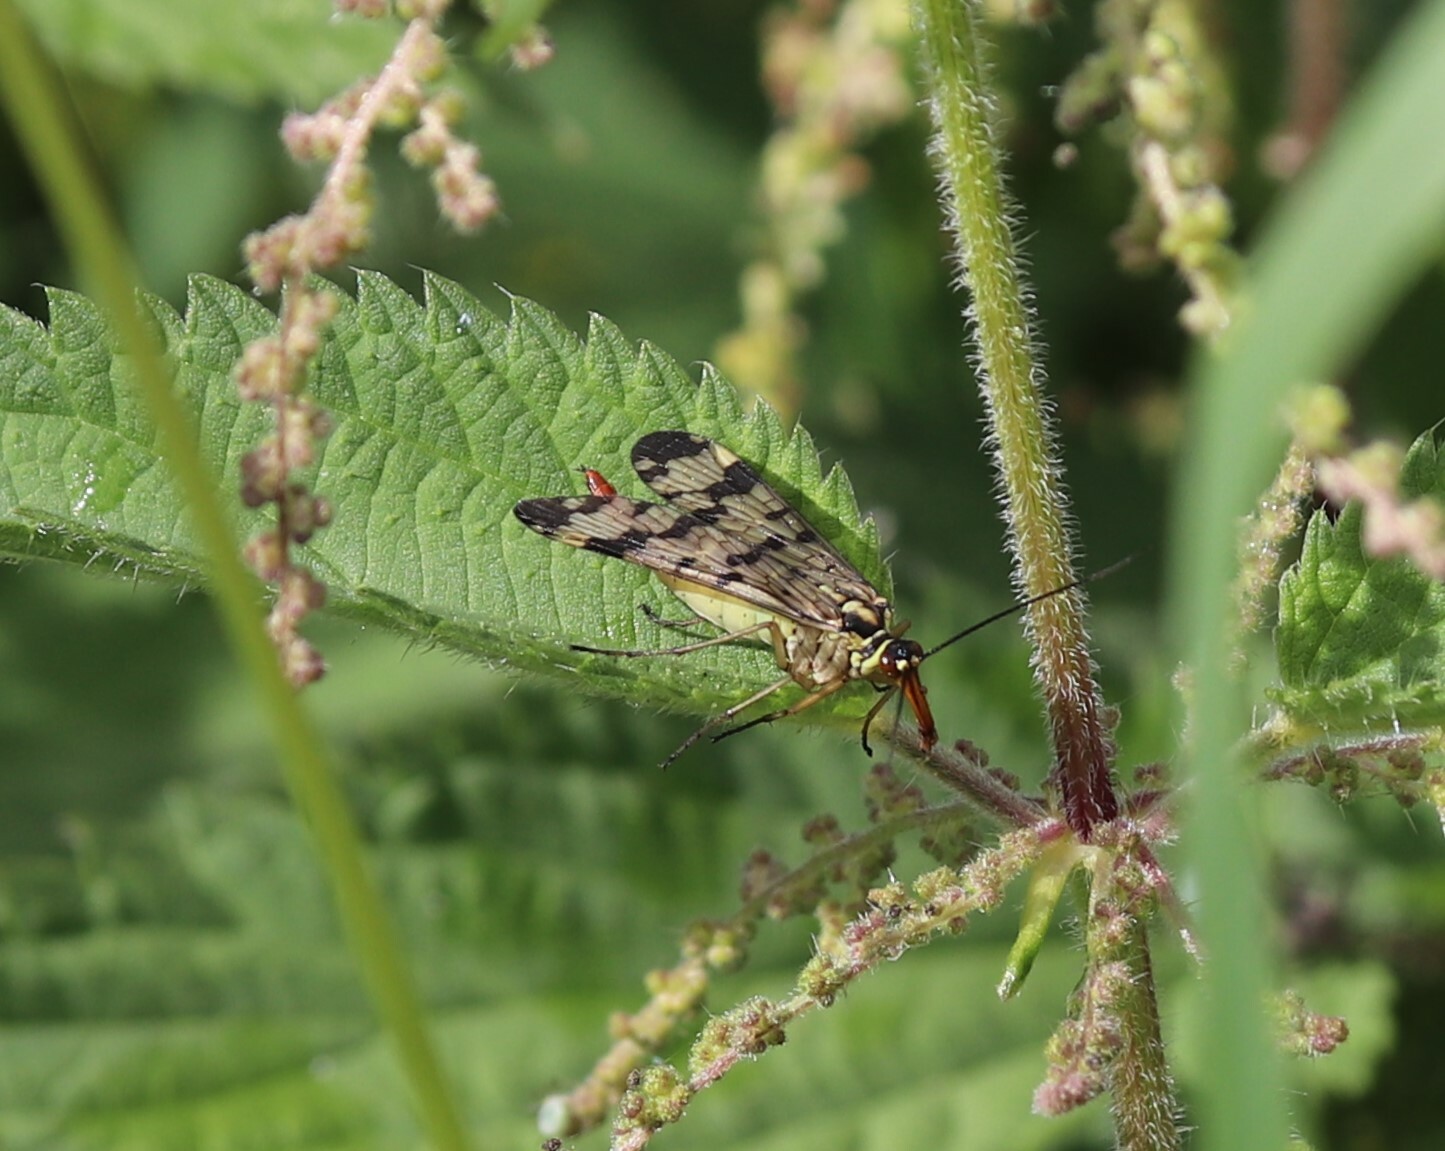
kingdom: Animalia
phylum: Arthropoda
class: Insecta
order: Mecoptera
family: Panorpidae
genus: Panorpa
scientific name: Panorpa communis
